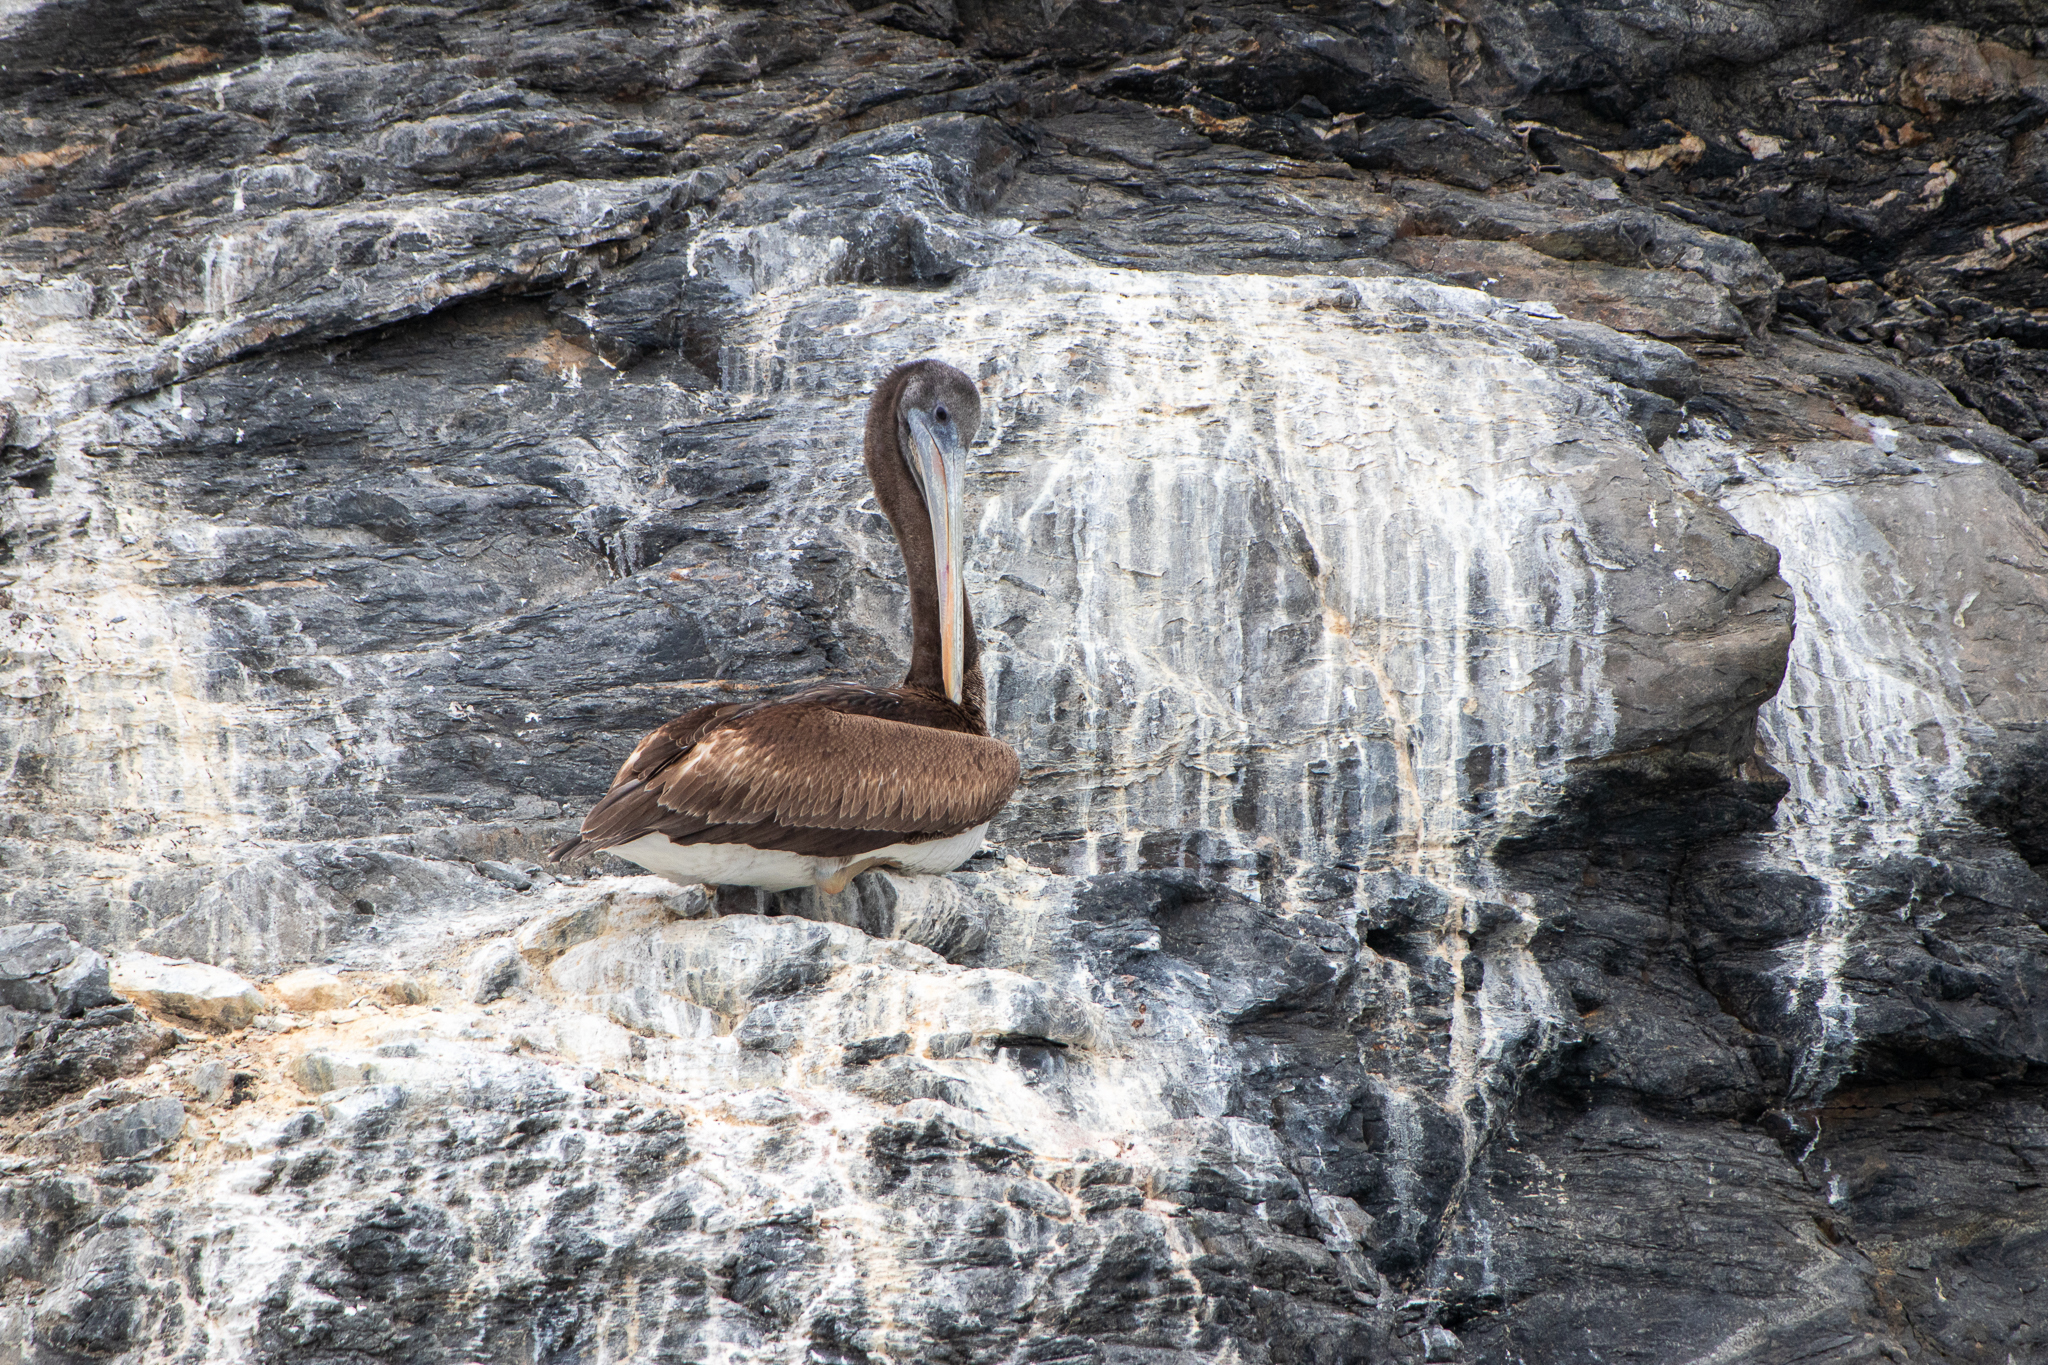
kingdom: Animalia
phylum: Chordata
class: Aves
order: Pelecaniformes
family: Pelecanidae
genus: Pelecanus
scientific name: Pelecanus thagus
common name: Peruvian pelican
